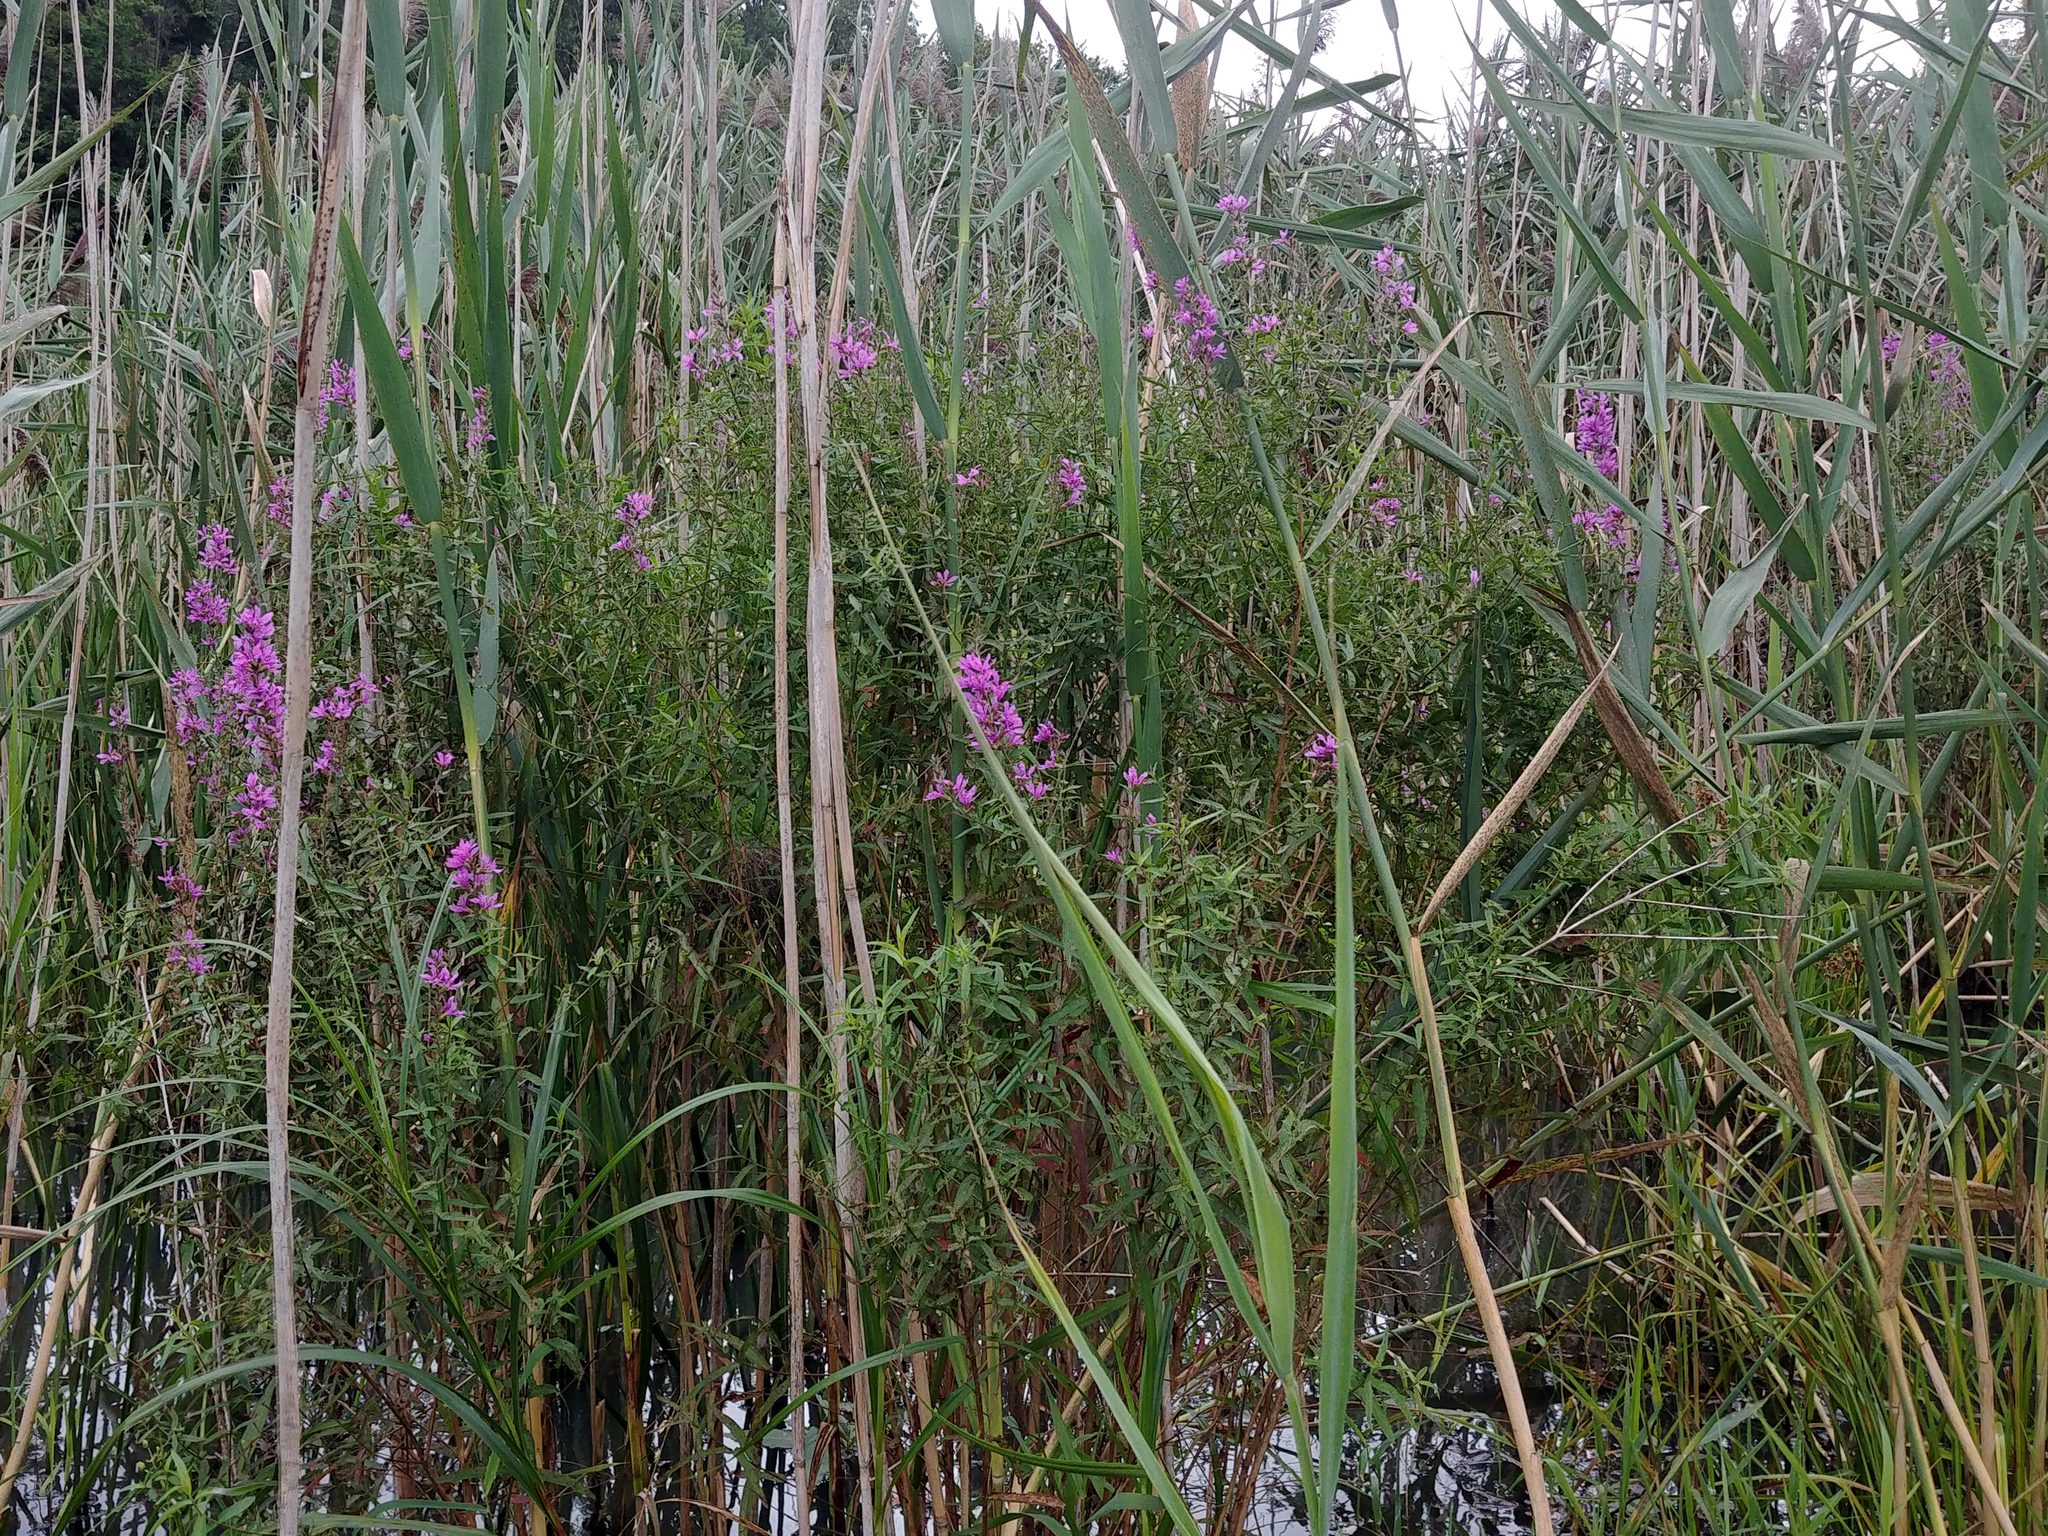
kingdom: Plantae
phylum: Tracheophyta
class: Magnoliopsida
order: Myrtales
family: Lythraceae
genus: Lythrum
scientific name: Lythrum salicaria
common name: Purple loosestrife
